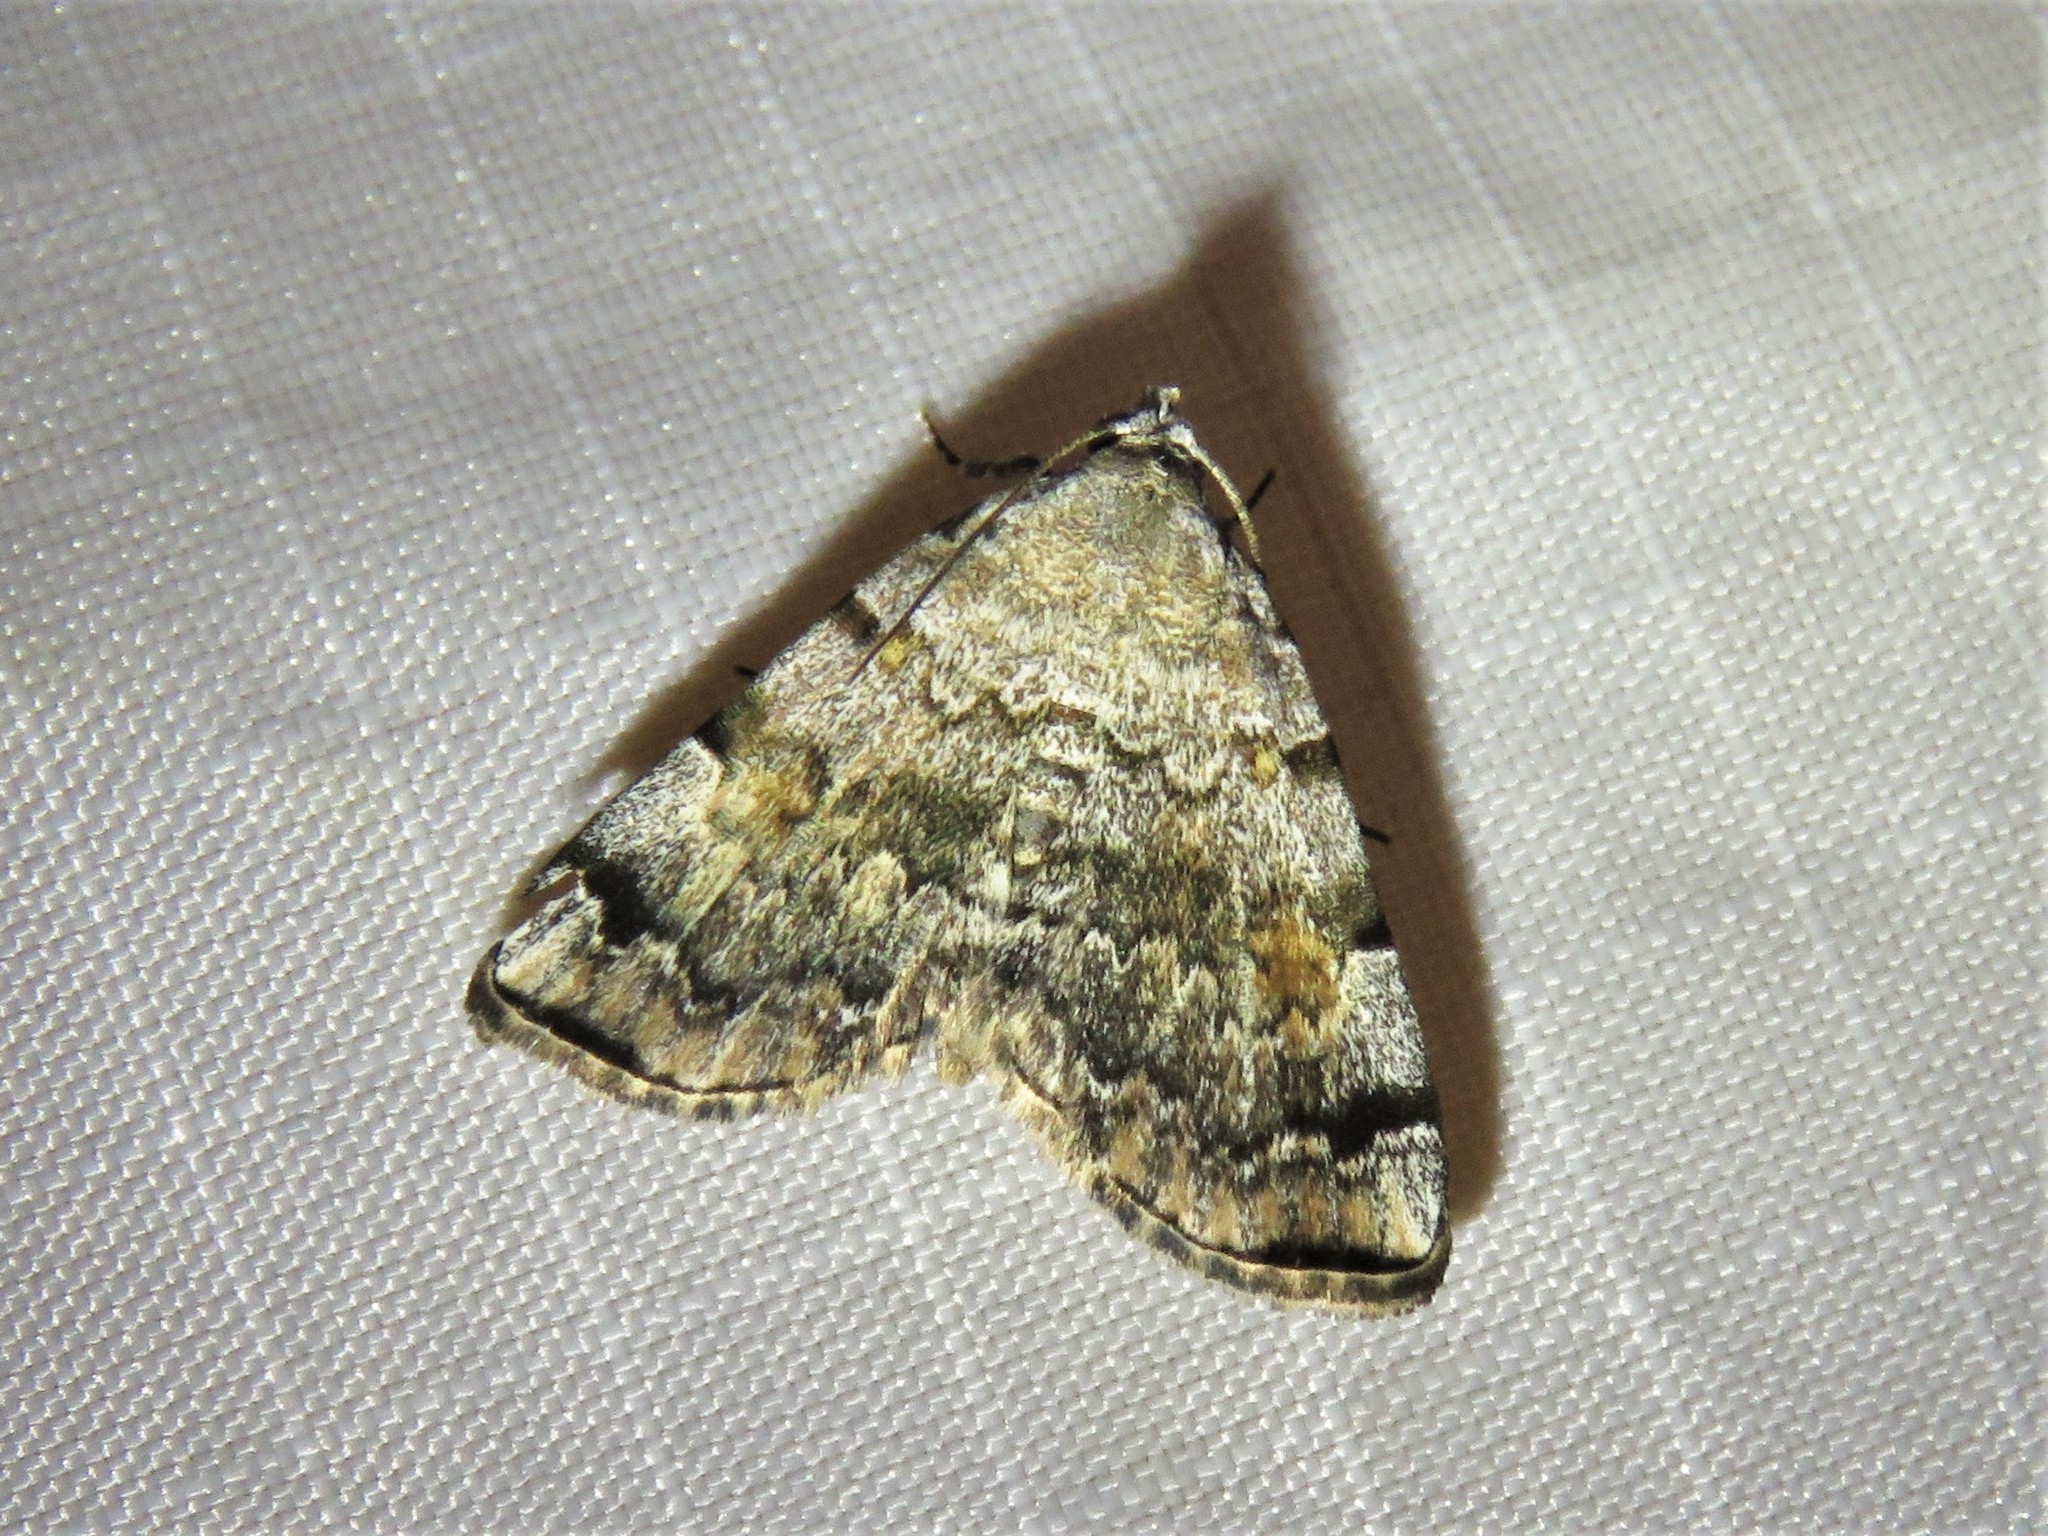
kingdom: Animalia
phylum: Arthropoda
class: Insecta
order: Lepidoptera
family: Erebidae
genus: Idia
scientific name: Idia americalis
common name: American idia moth
